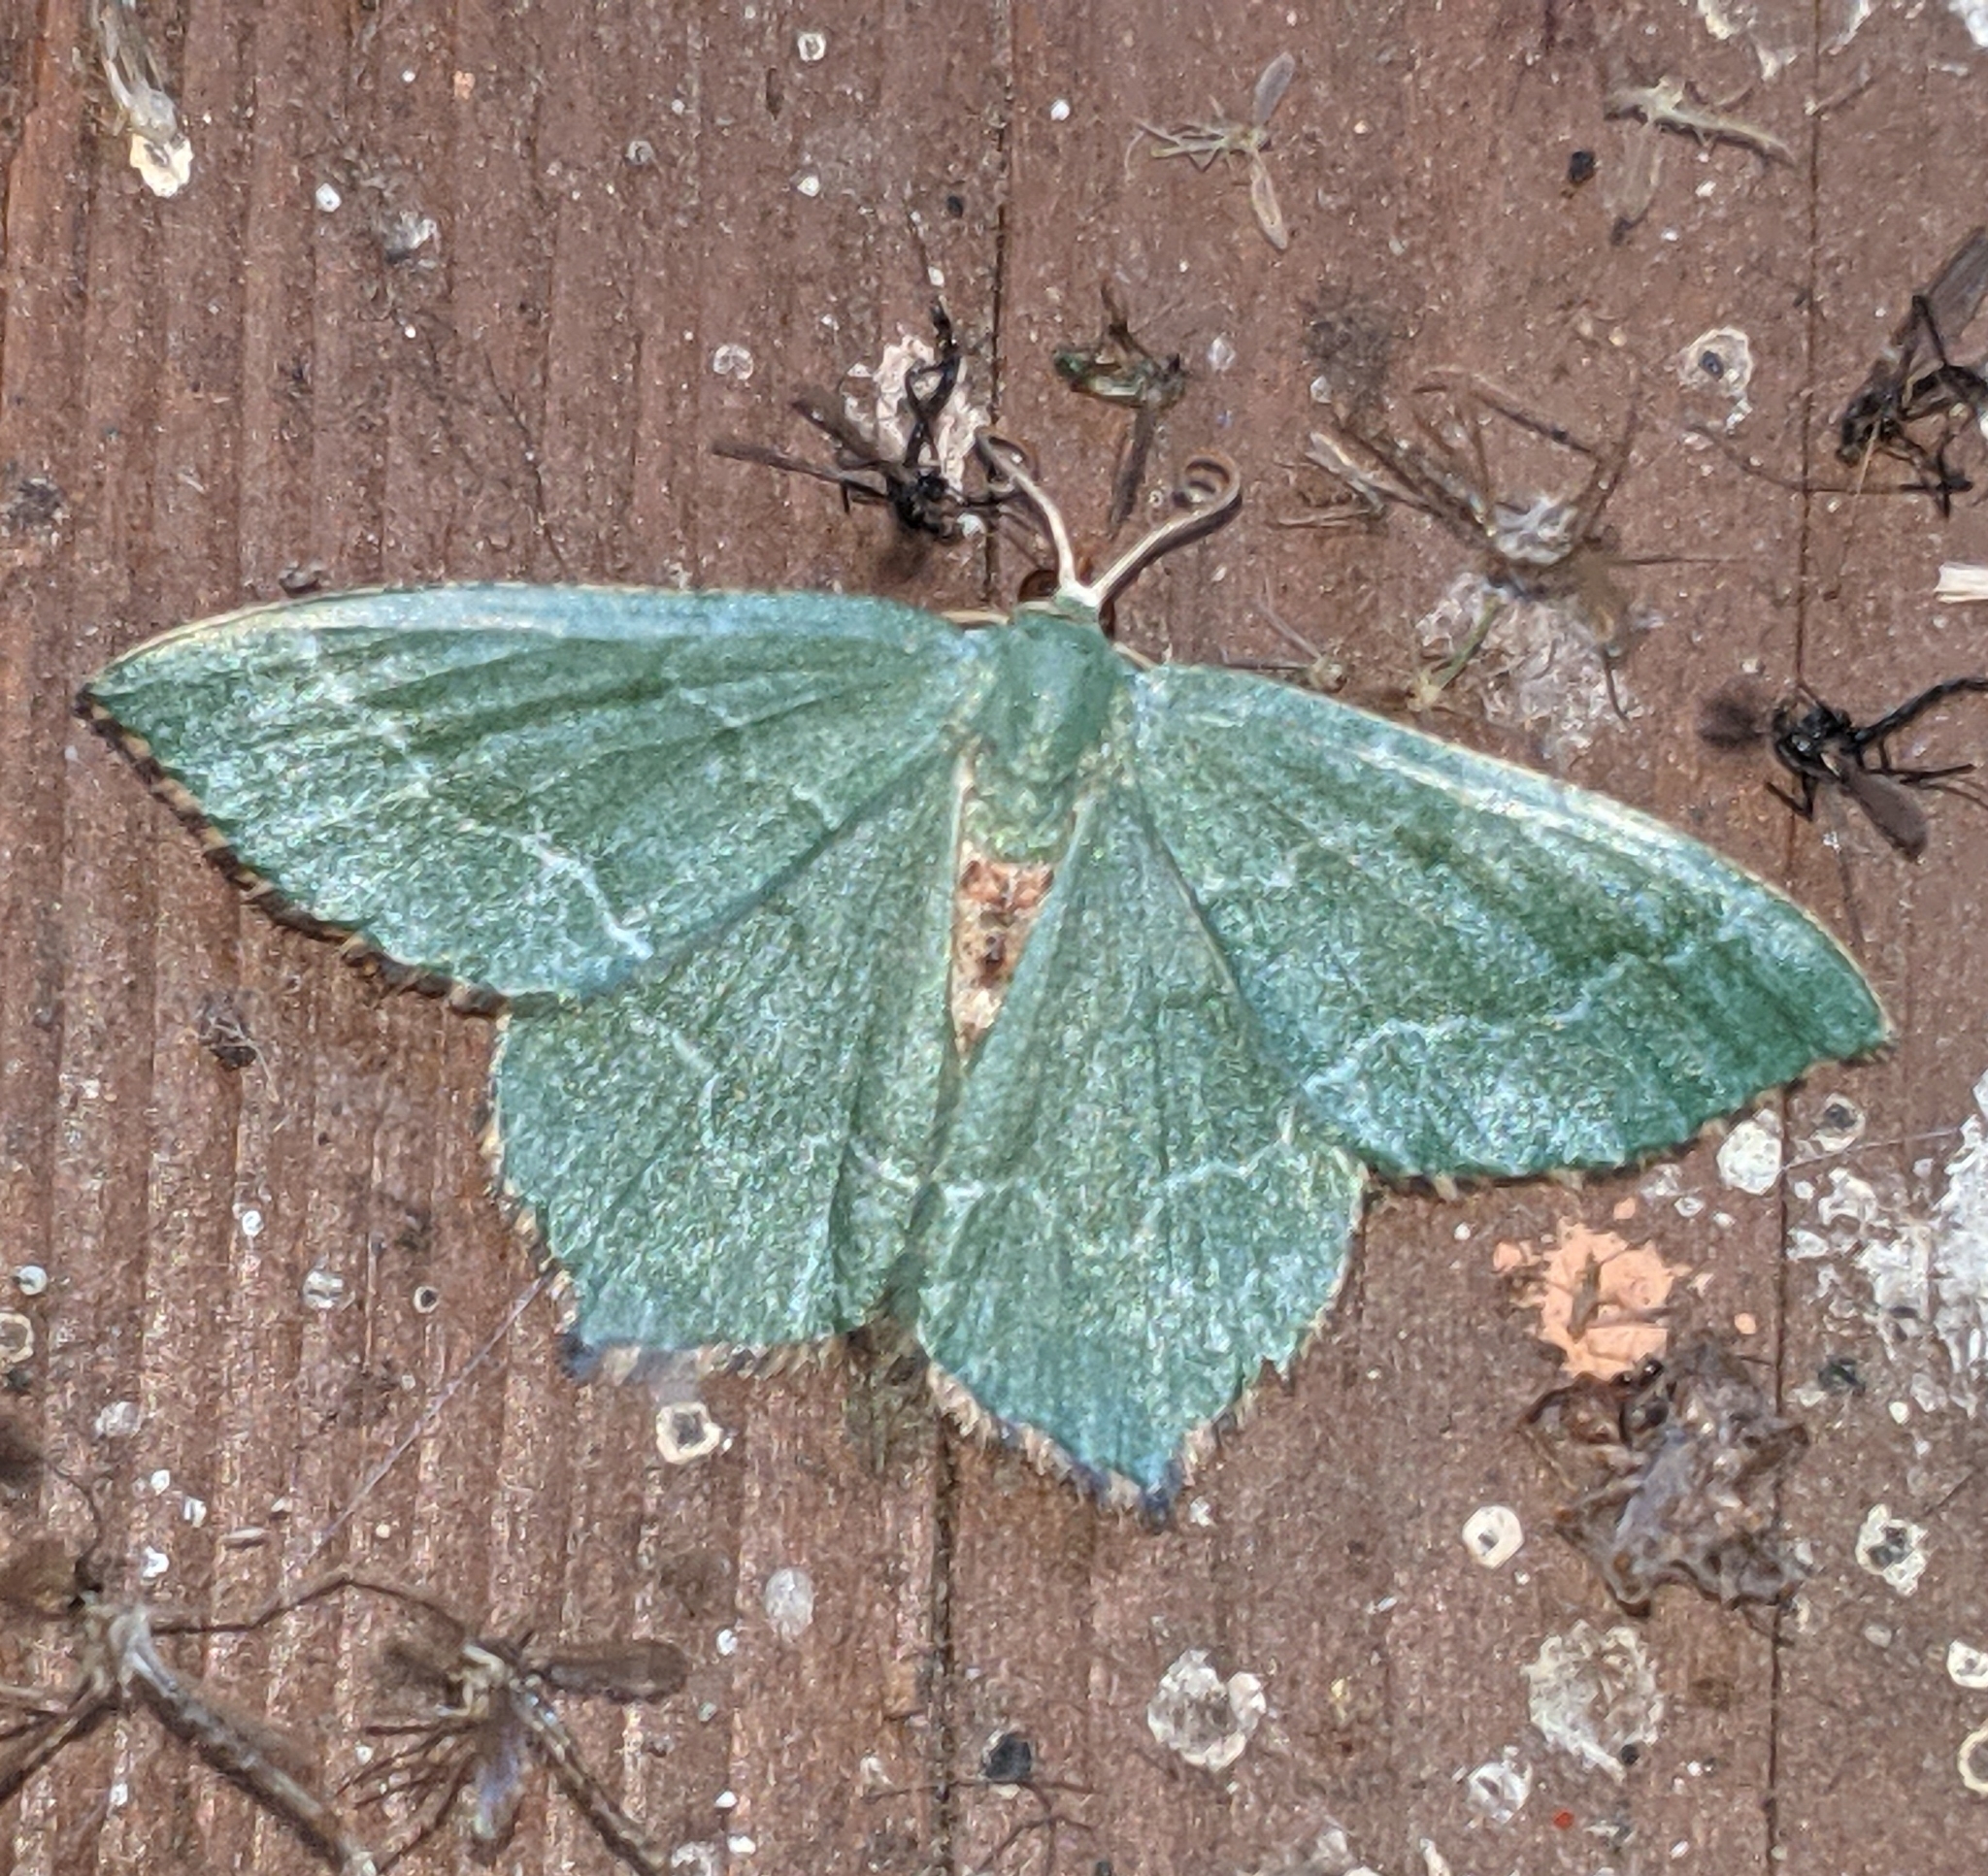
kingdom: Animalia
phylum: Arthropoda
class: Insecta
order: Lepidoptera
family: Geometridae
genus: Hemithea
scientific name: Hemithea aestivaria
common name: Common emerald
